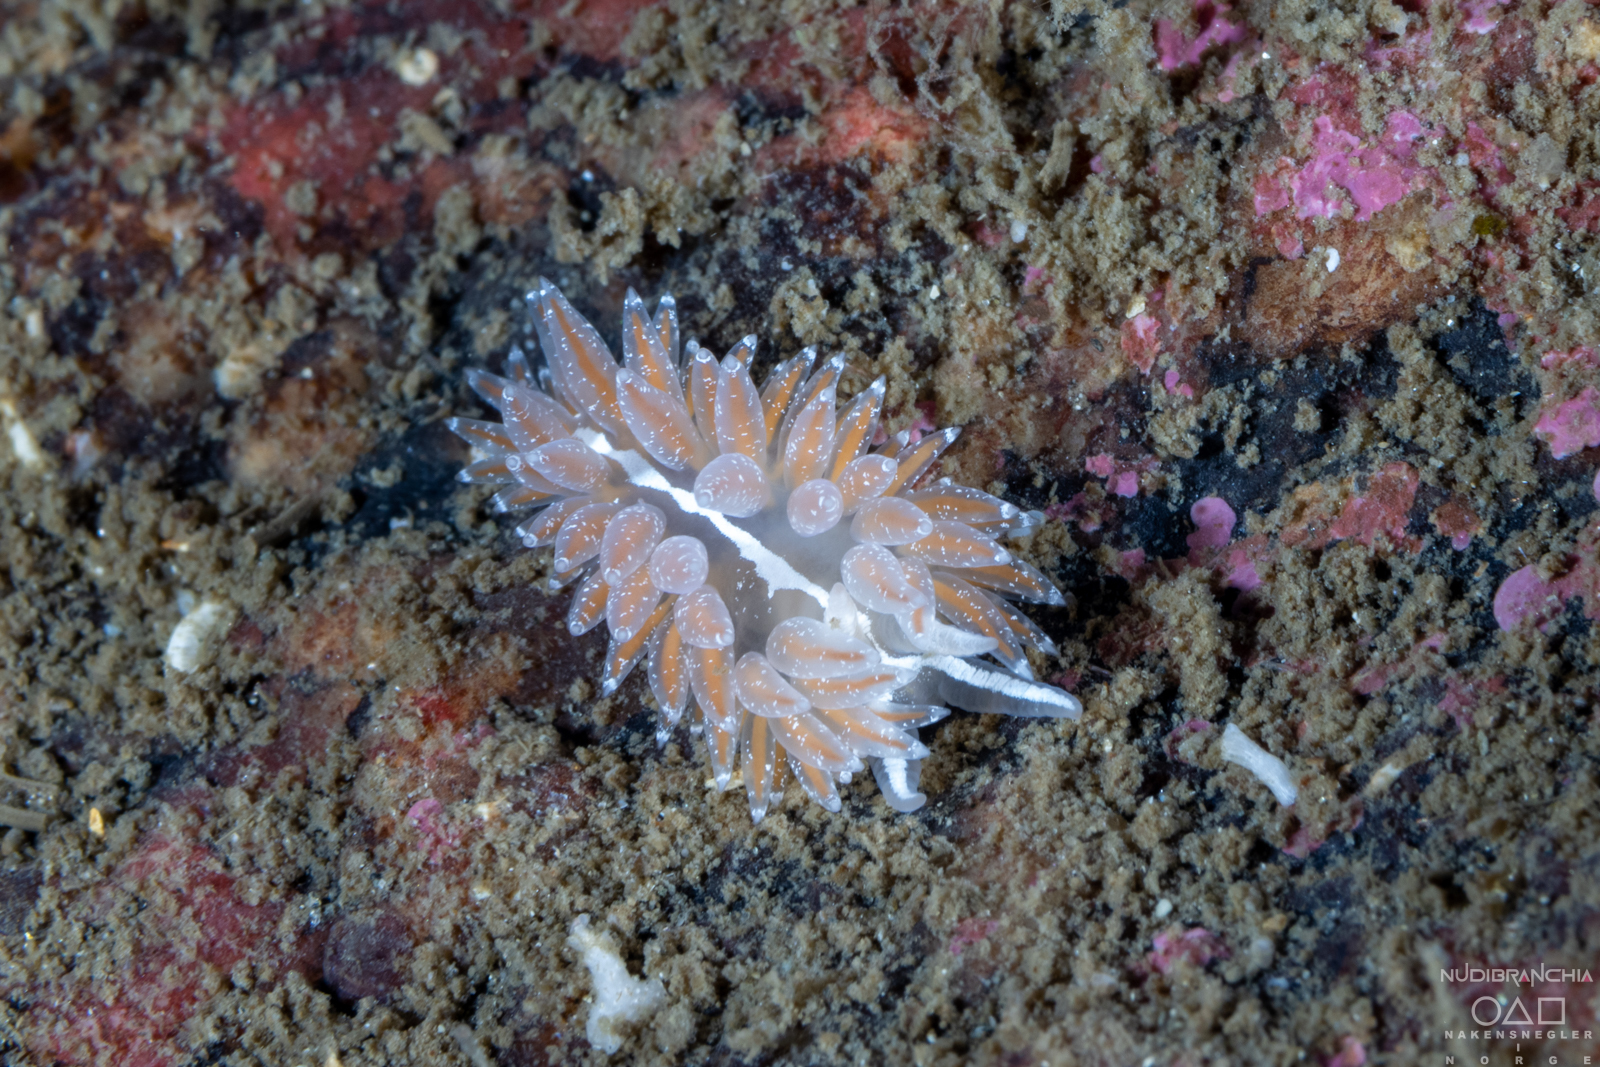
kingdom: Animalia
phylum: Mollusca
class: Gastropoda
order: Nudibranchia
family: Coryphellidae
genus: Coryphella
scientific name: Coryphella monicae
